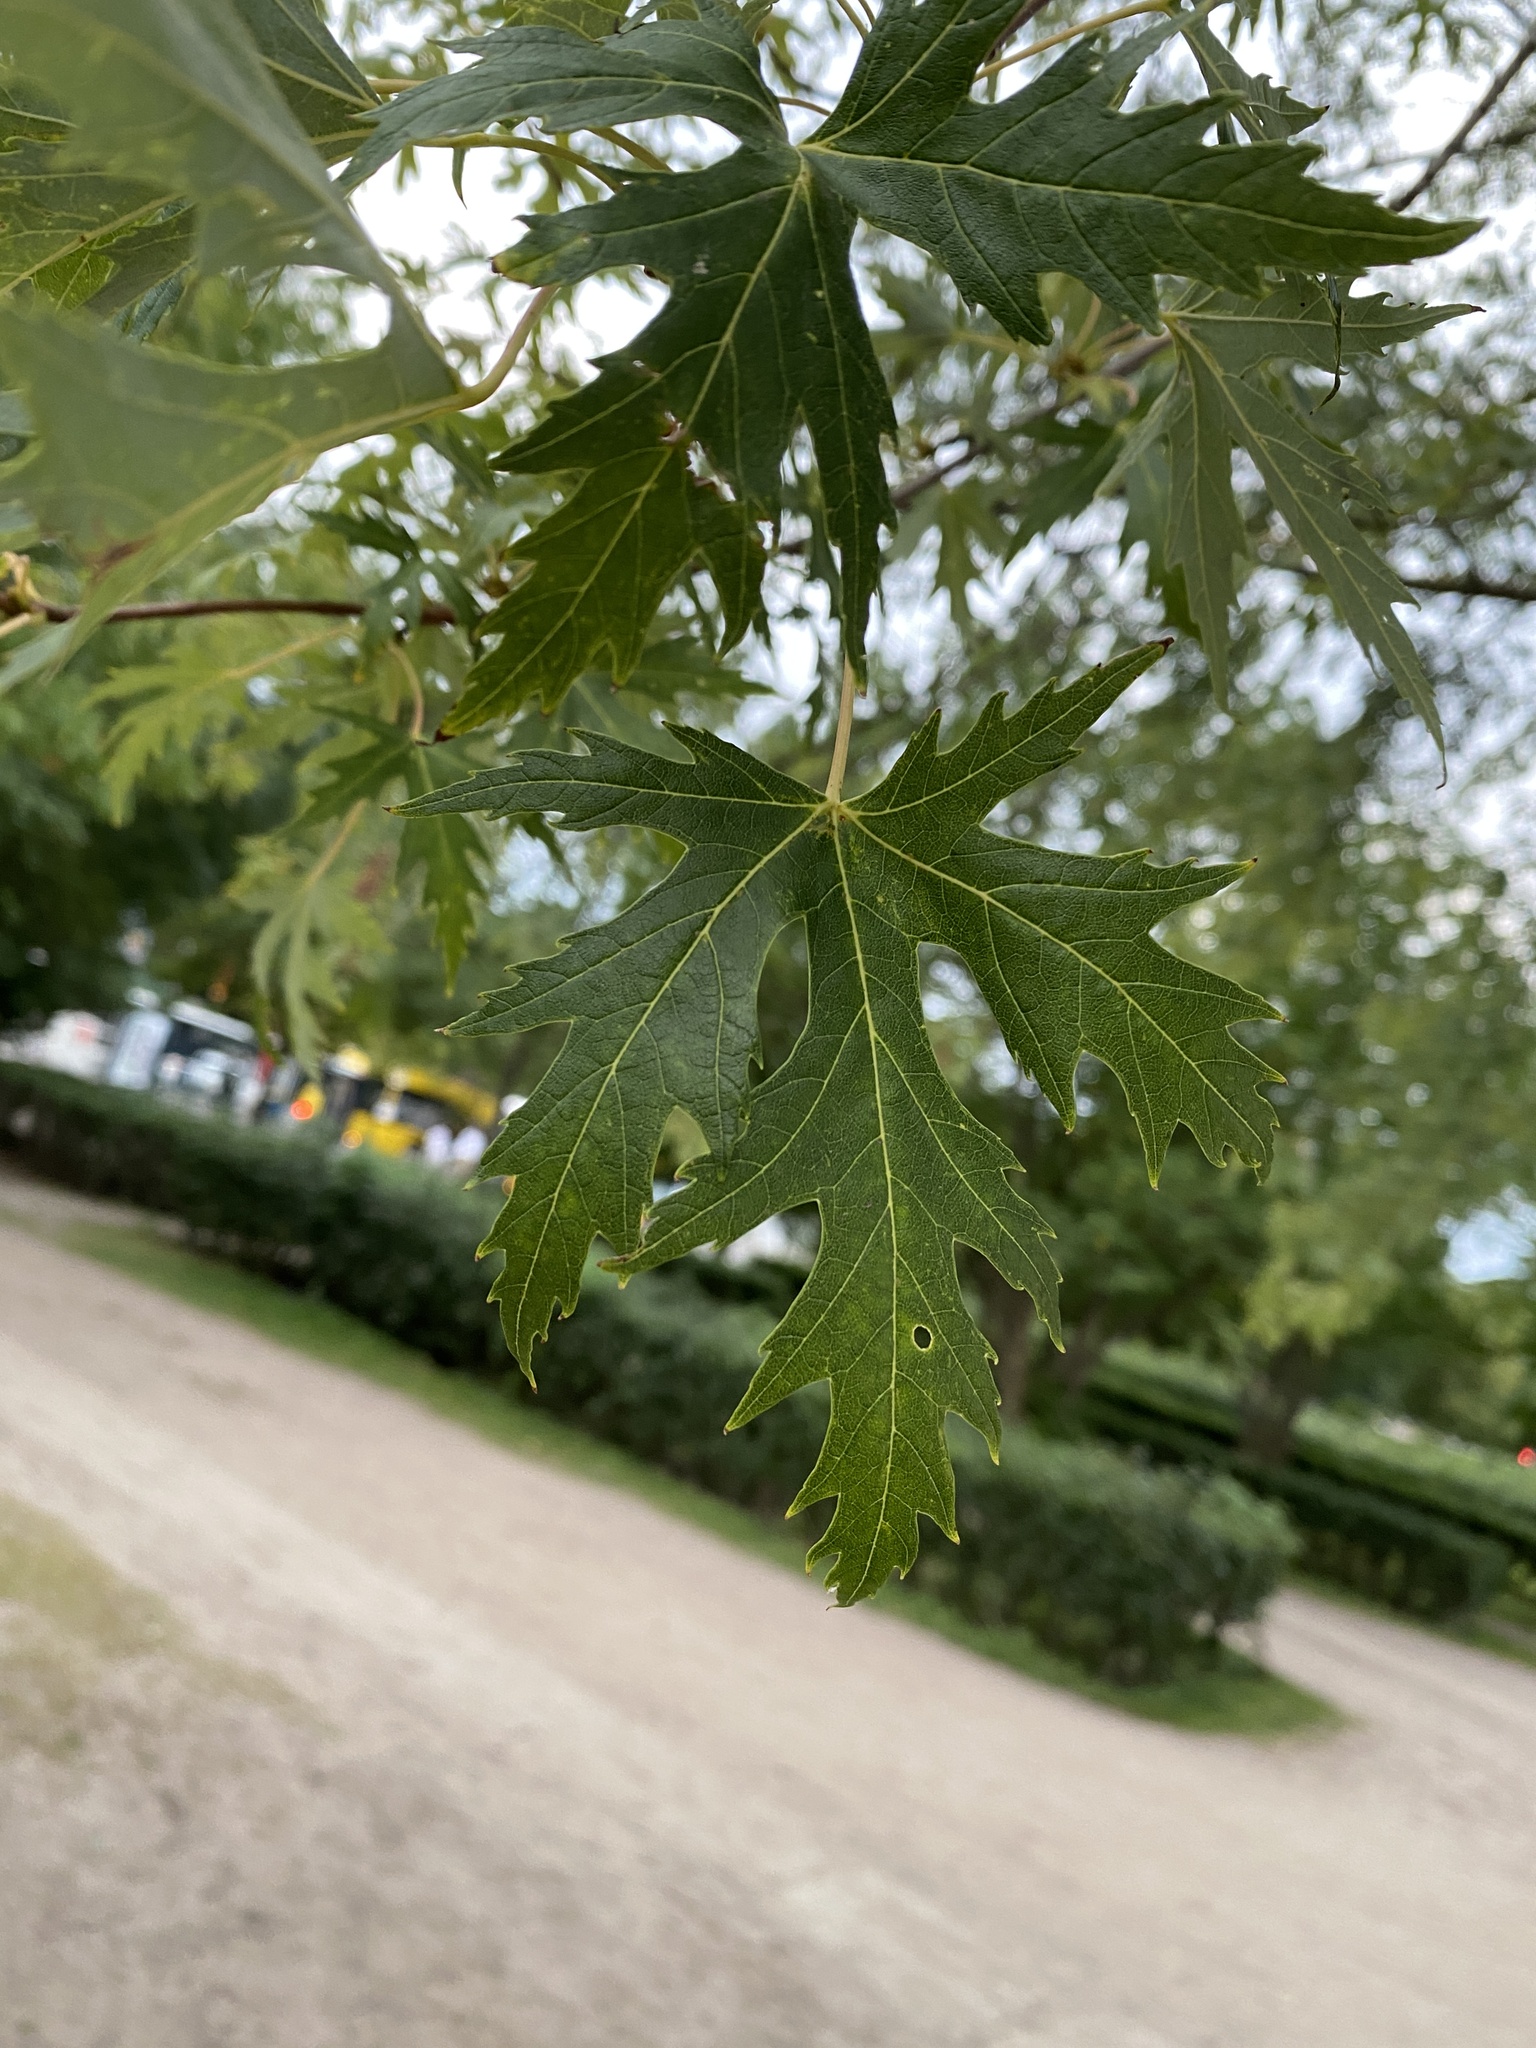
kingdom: Plantae
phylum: Tracheophyta
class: Magnoliopsida
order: Sapindales
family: Sapindaceae
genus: Acer
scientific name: Acer saccharinum
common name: Silver maple
